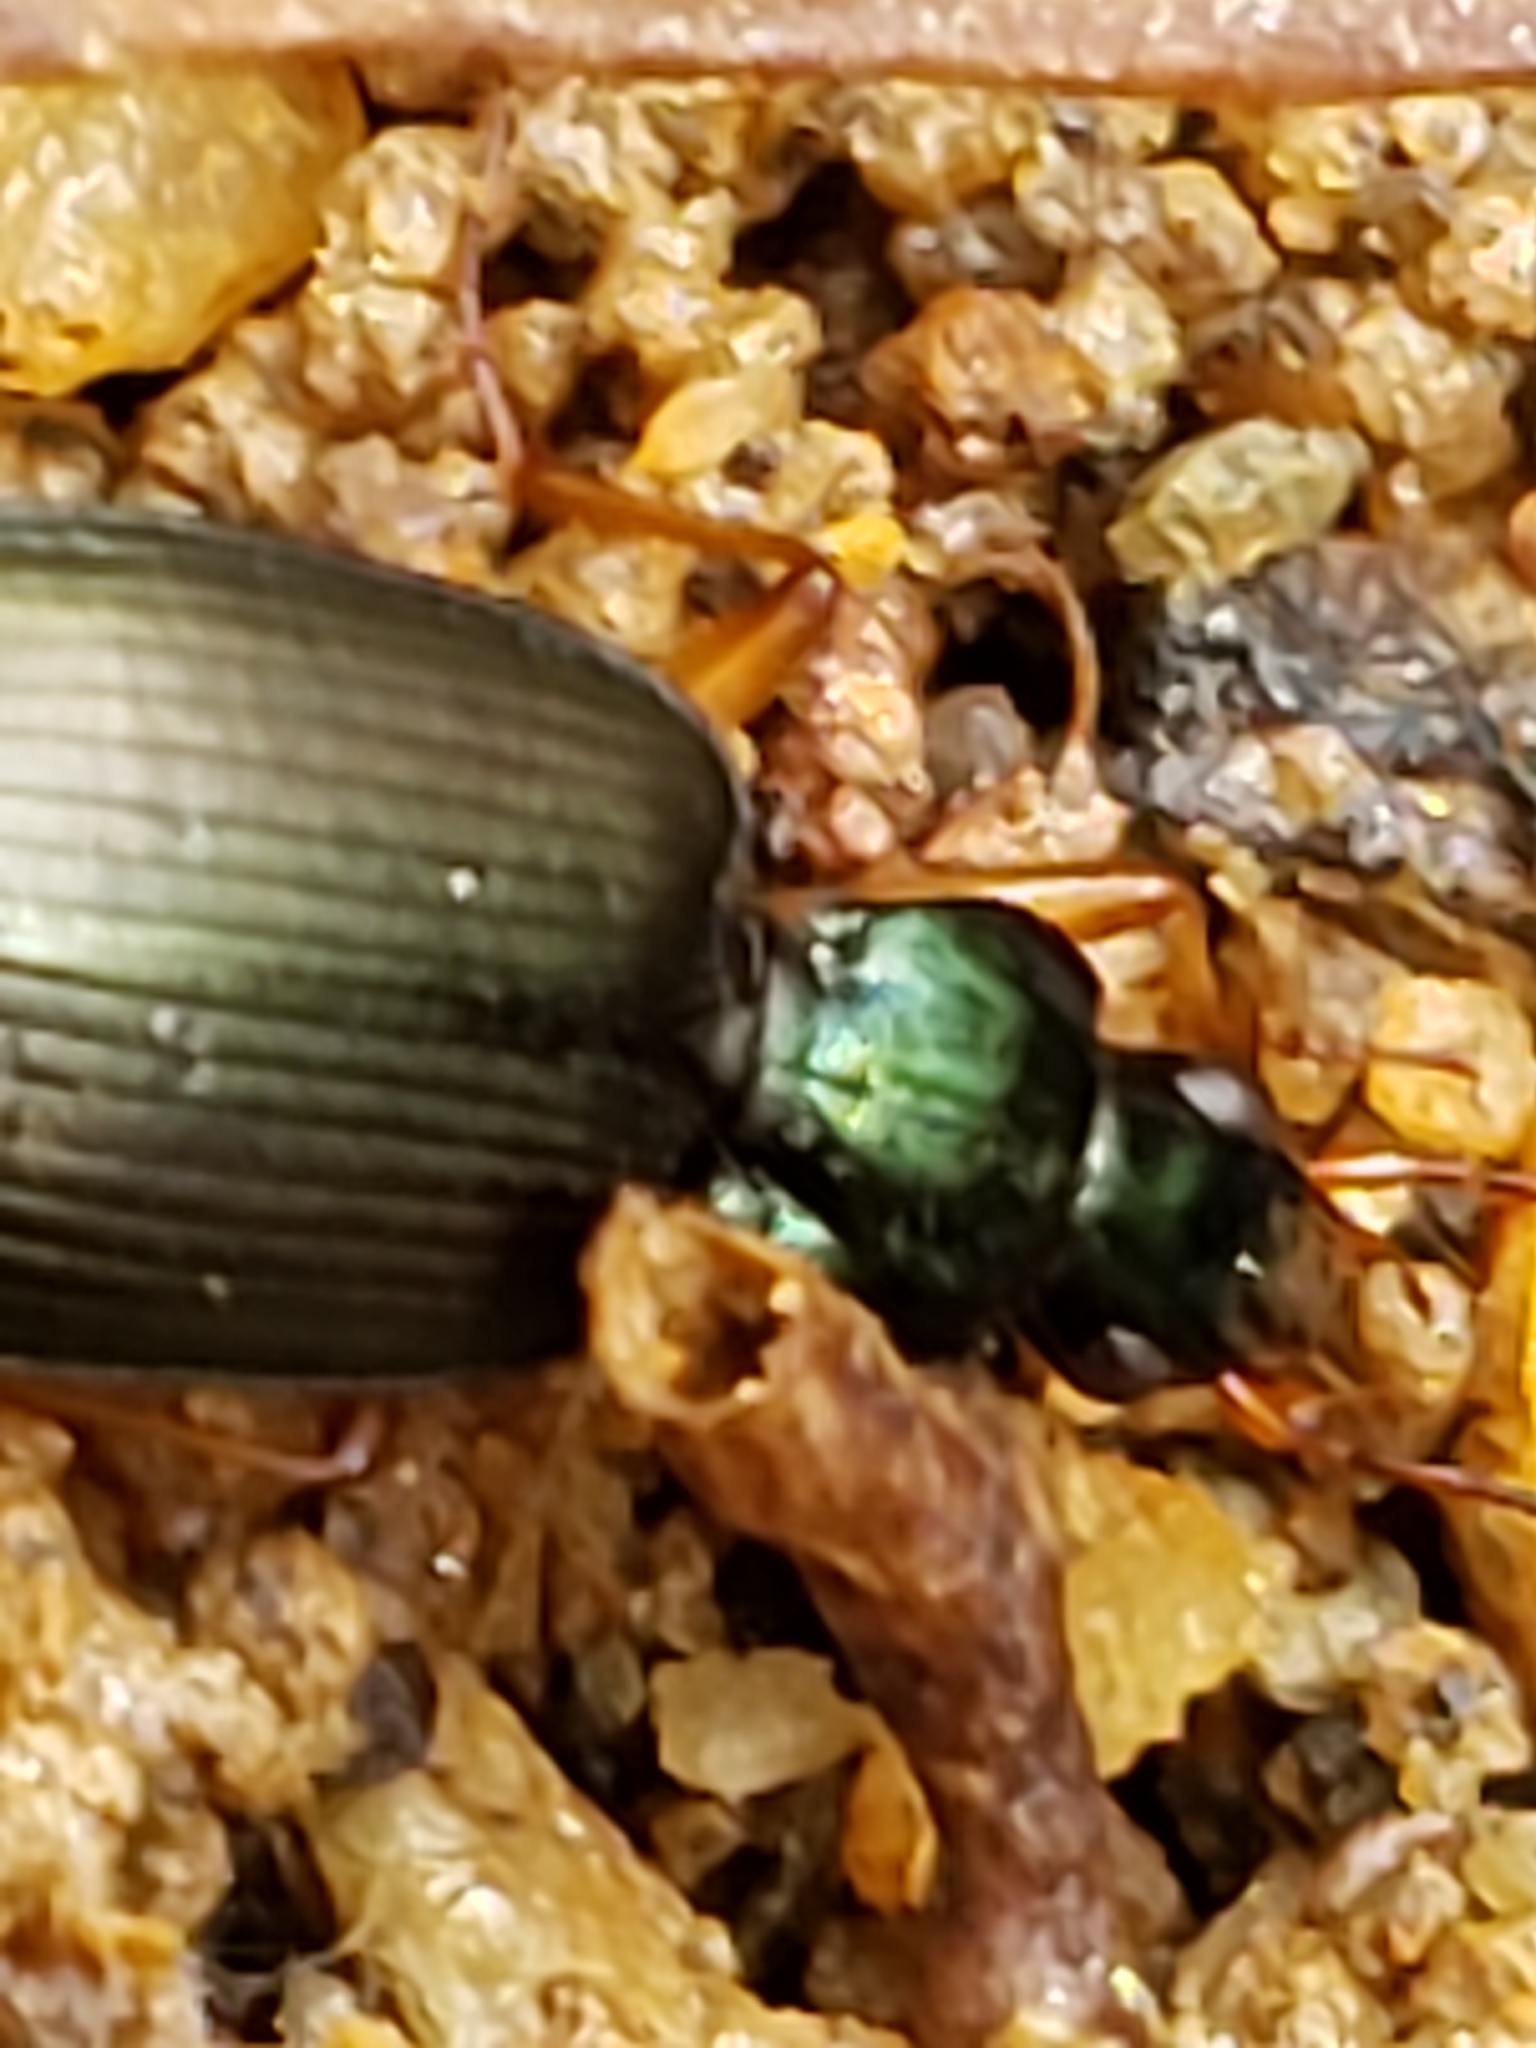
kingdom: Animalia
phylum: Arthropoda
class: Insecta
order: Coleoptera
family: Carabidae
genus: Agonum
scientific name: Agonum extensicolle
